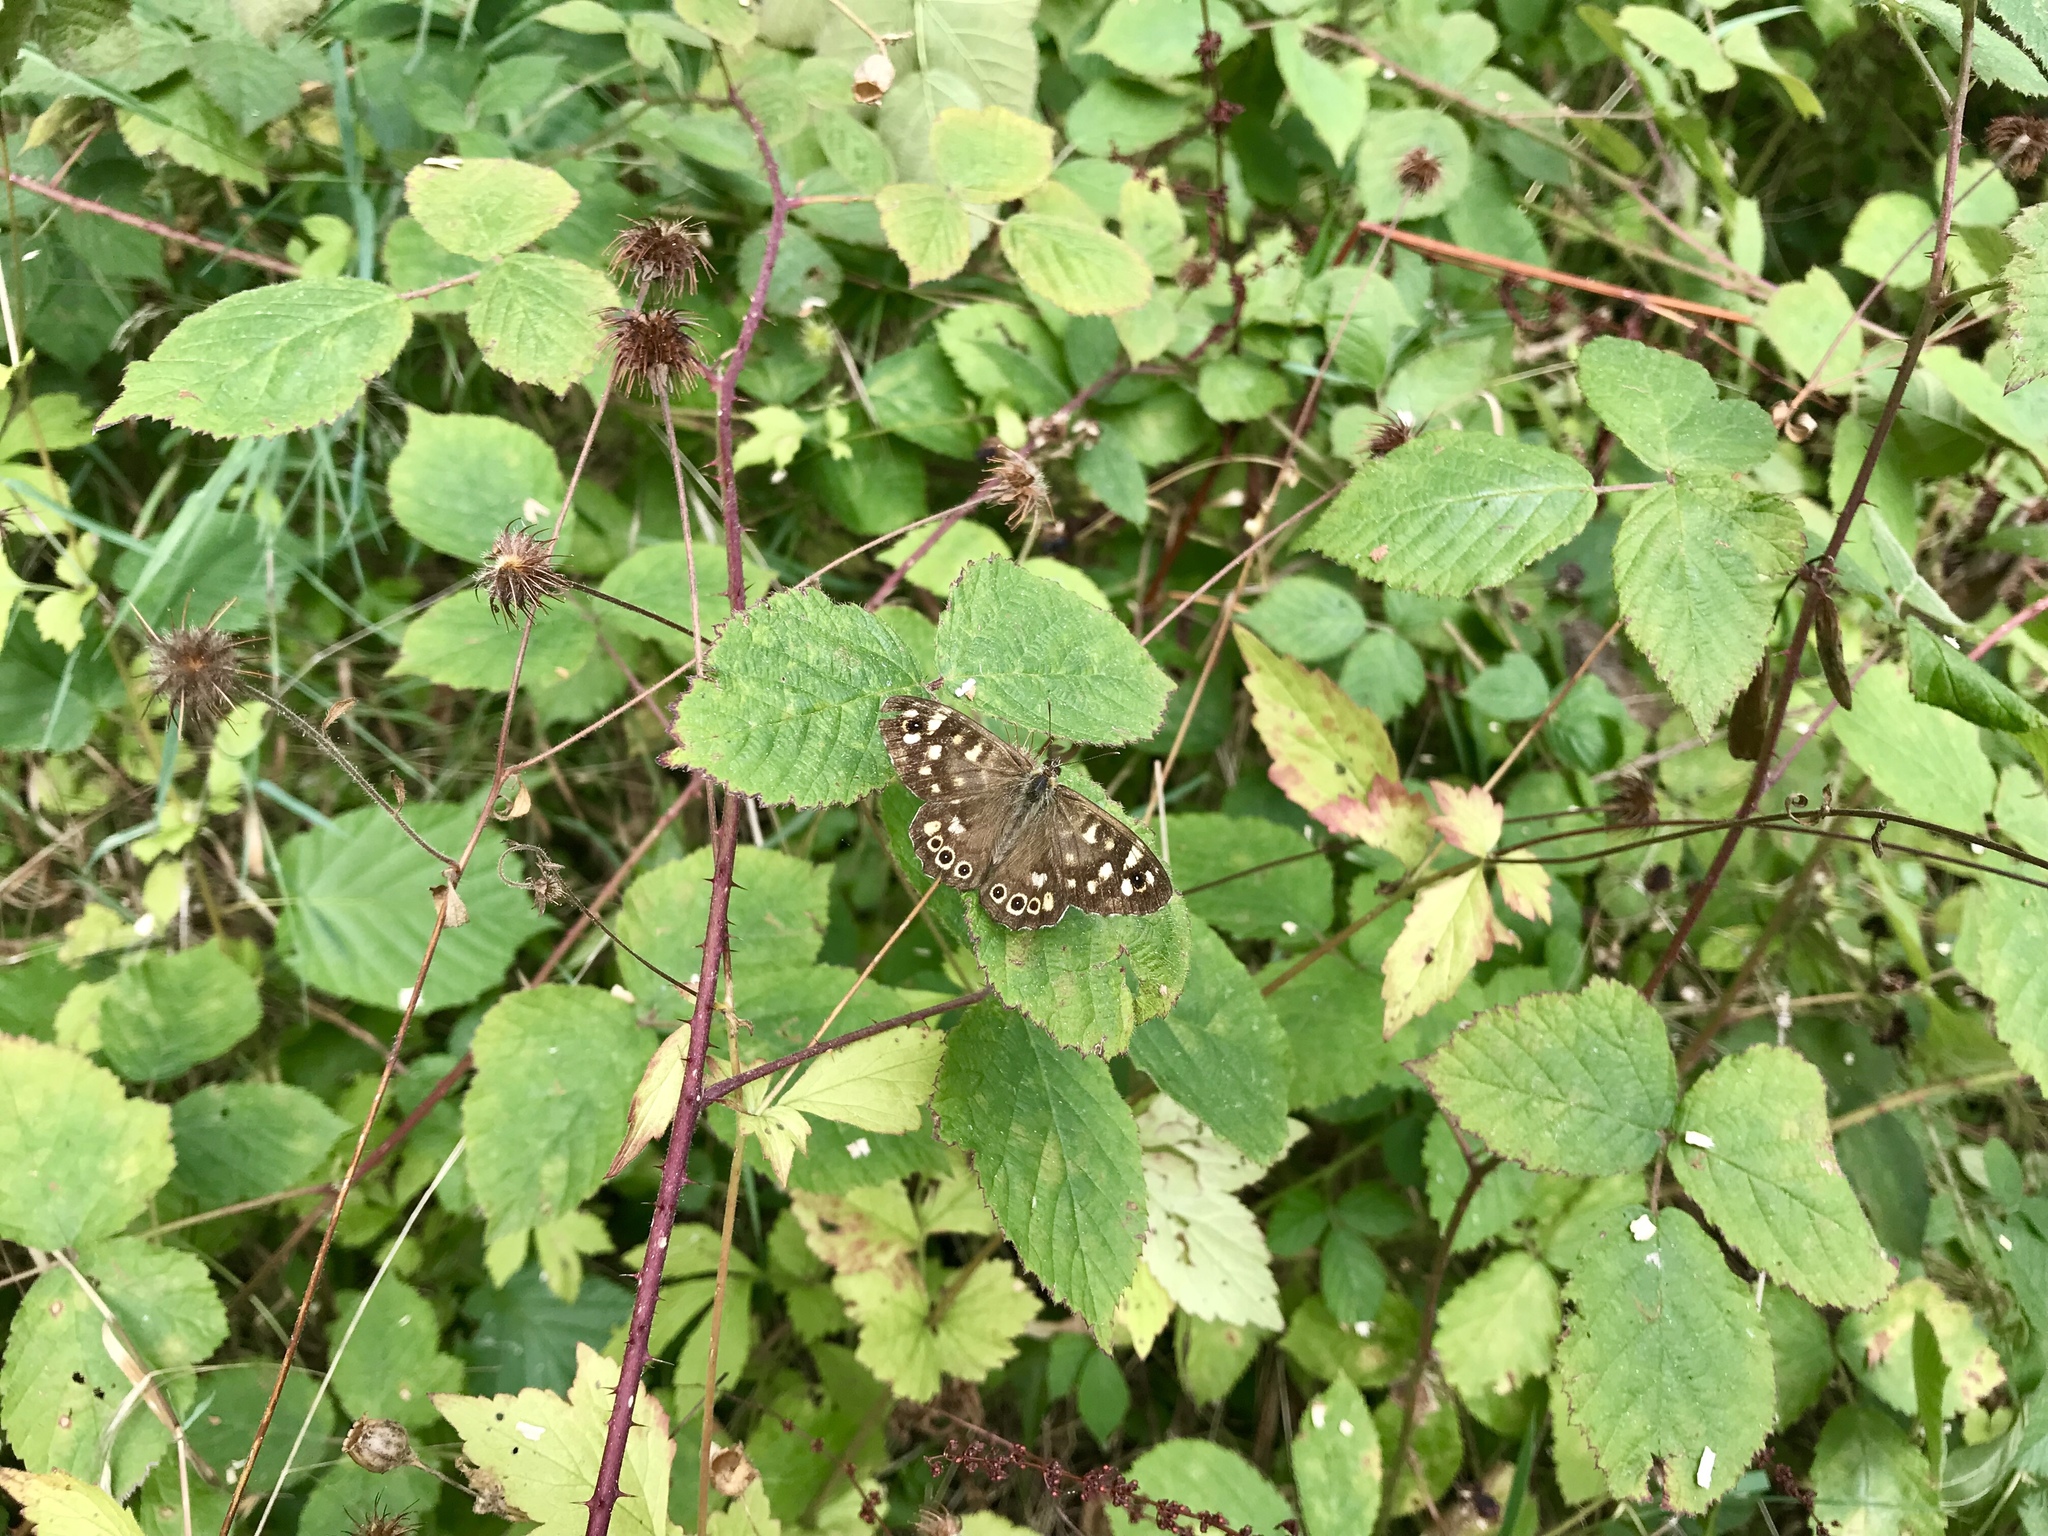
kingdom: Animalia
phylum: Arthropoda
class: Insecta
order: Lepidoptera
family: Nymphalidae
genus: Pararge
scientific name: Pararge aegeria
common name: Speckled wood
